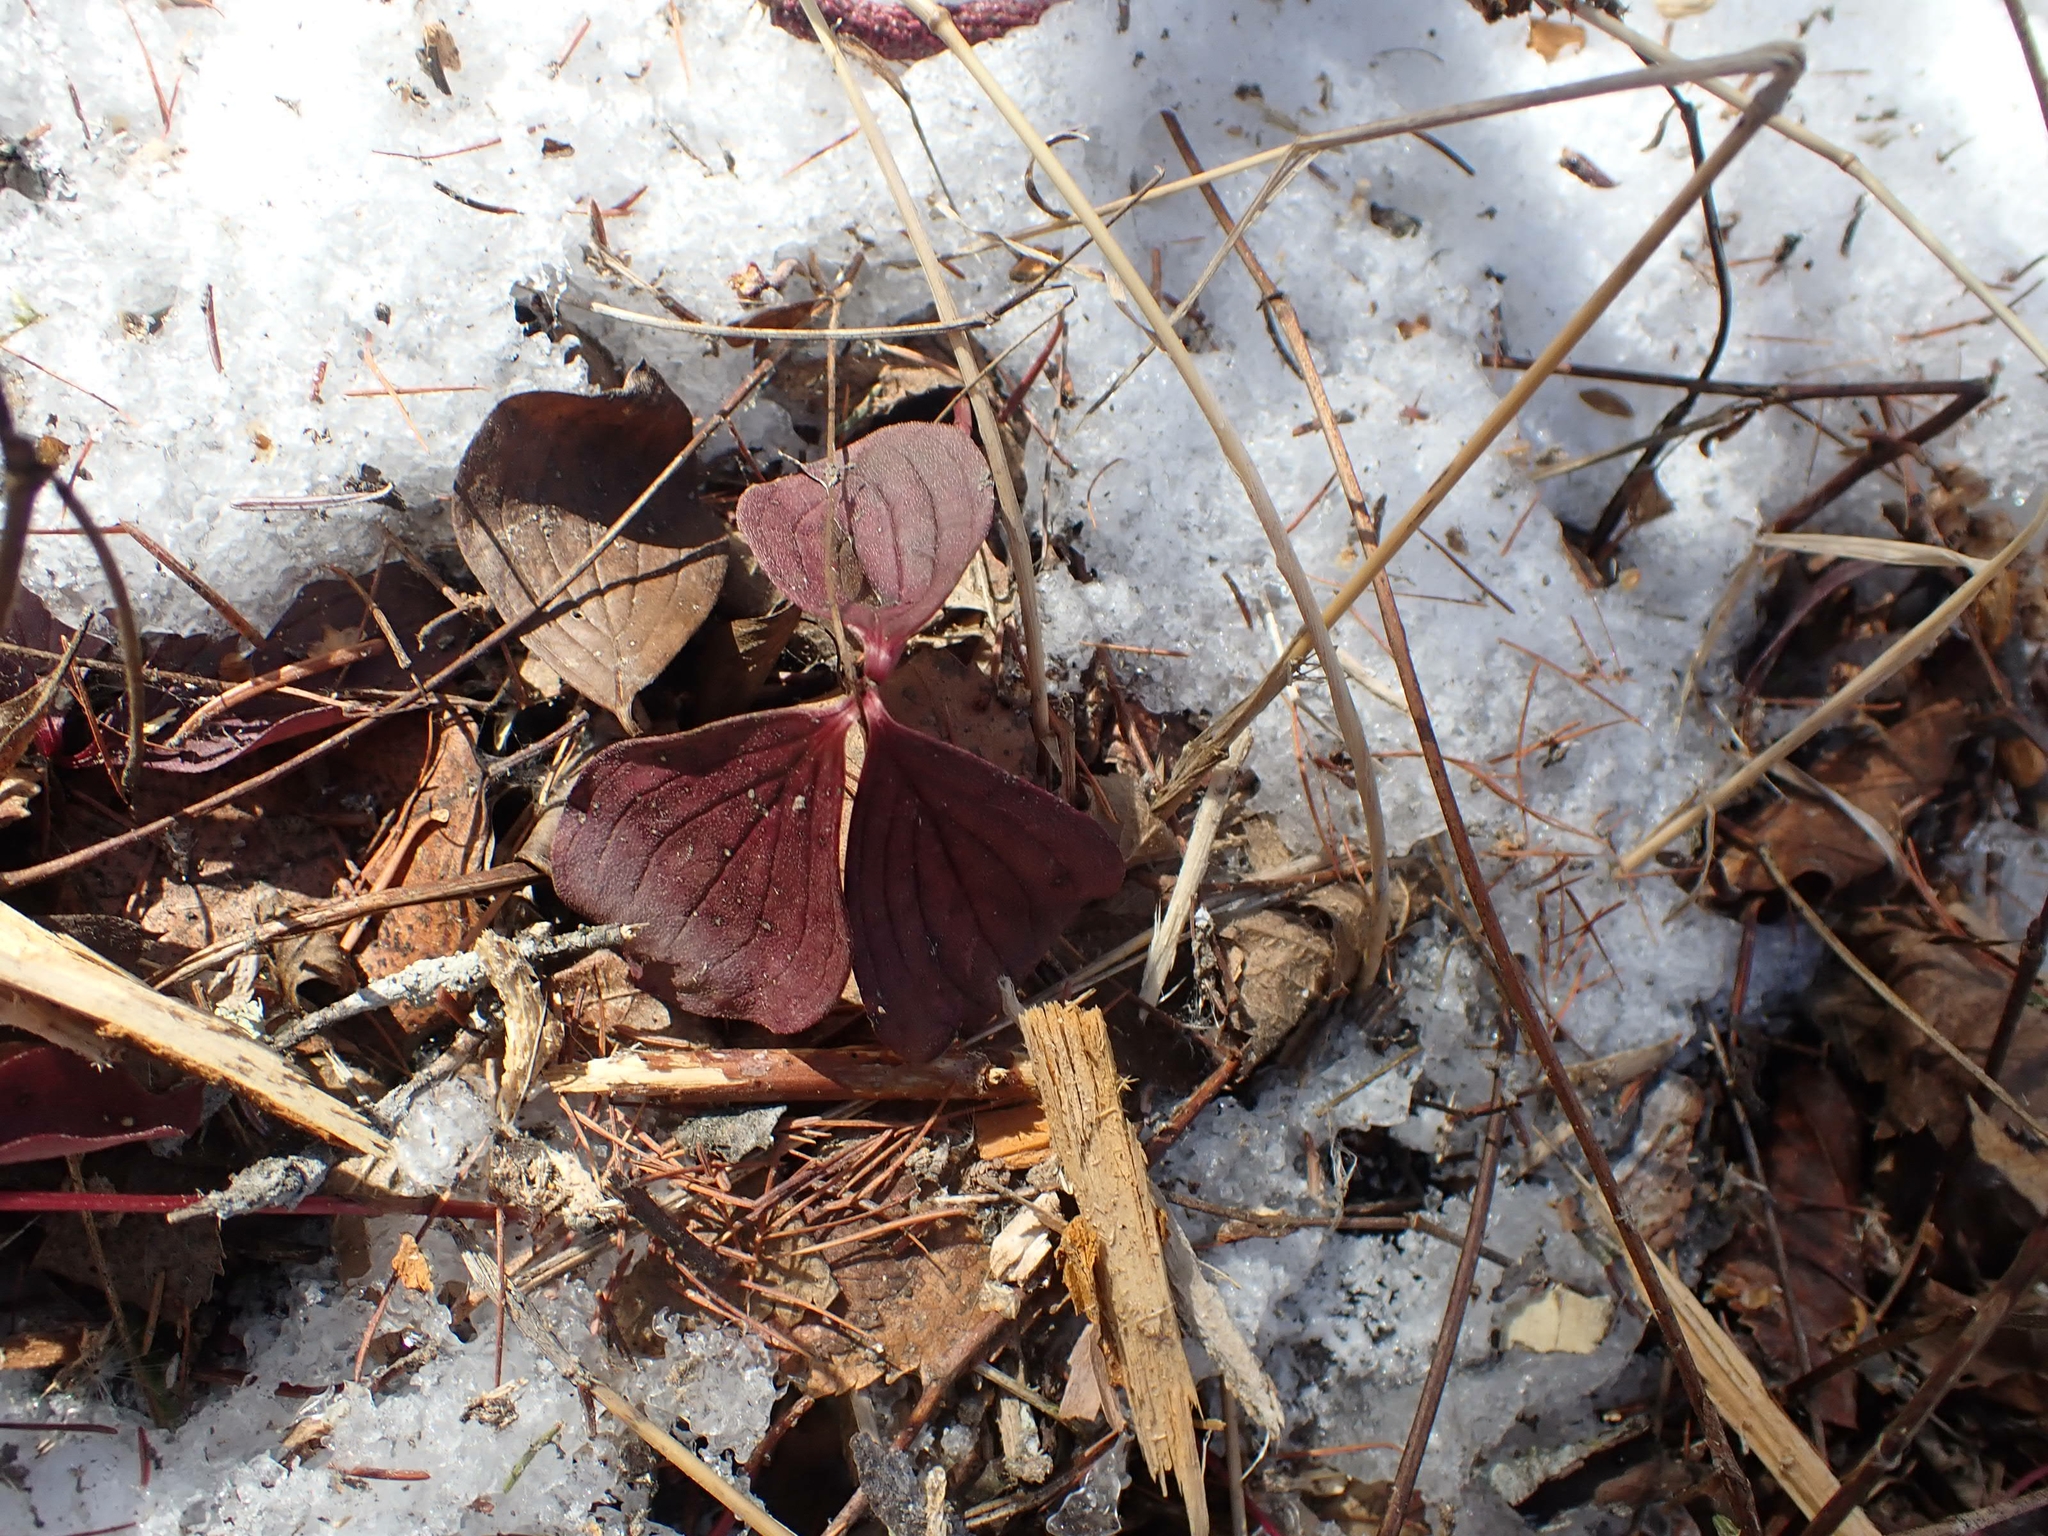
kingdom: Plantae
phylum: Tracheophyta
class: Magnoliopsida
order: Cornales
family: Cornaceae
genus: Cornus
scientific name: Cornus canadensis
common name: Creeping dogwood
